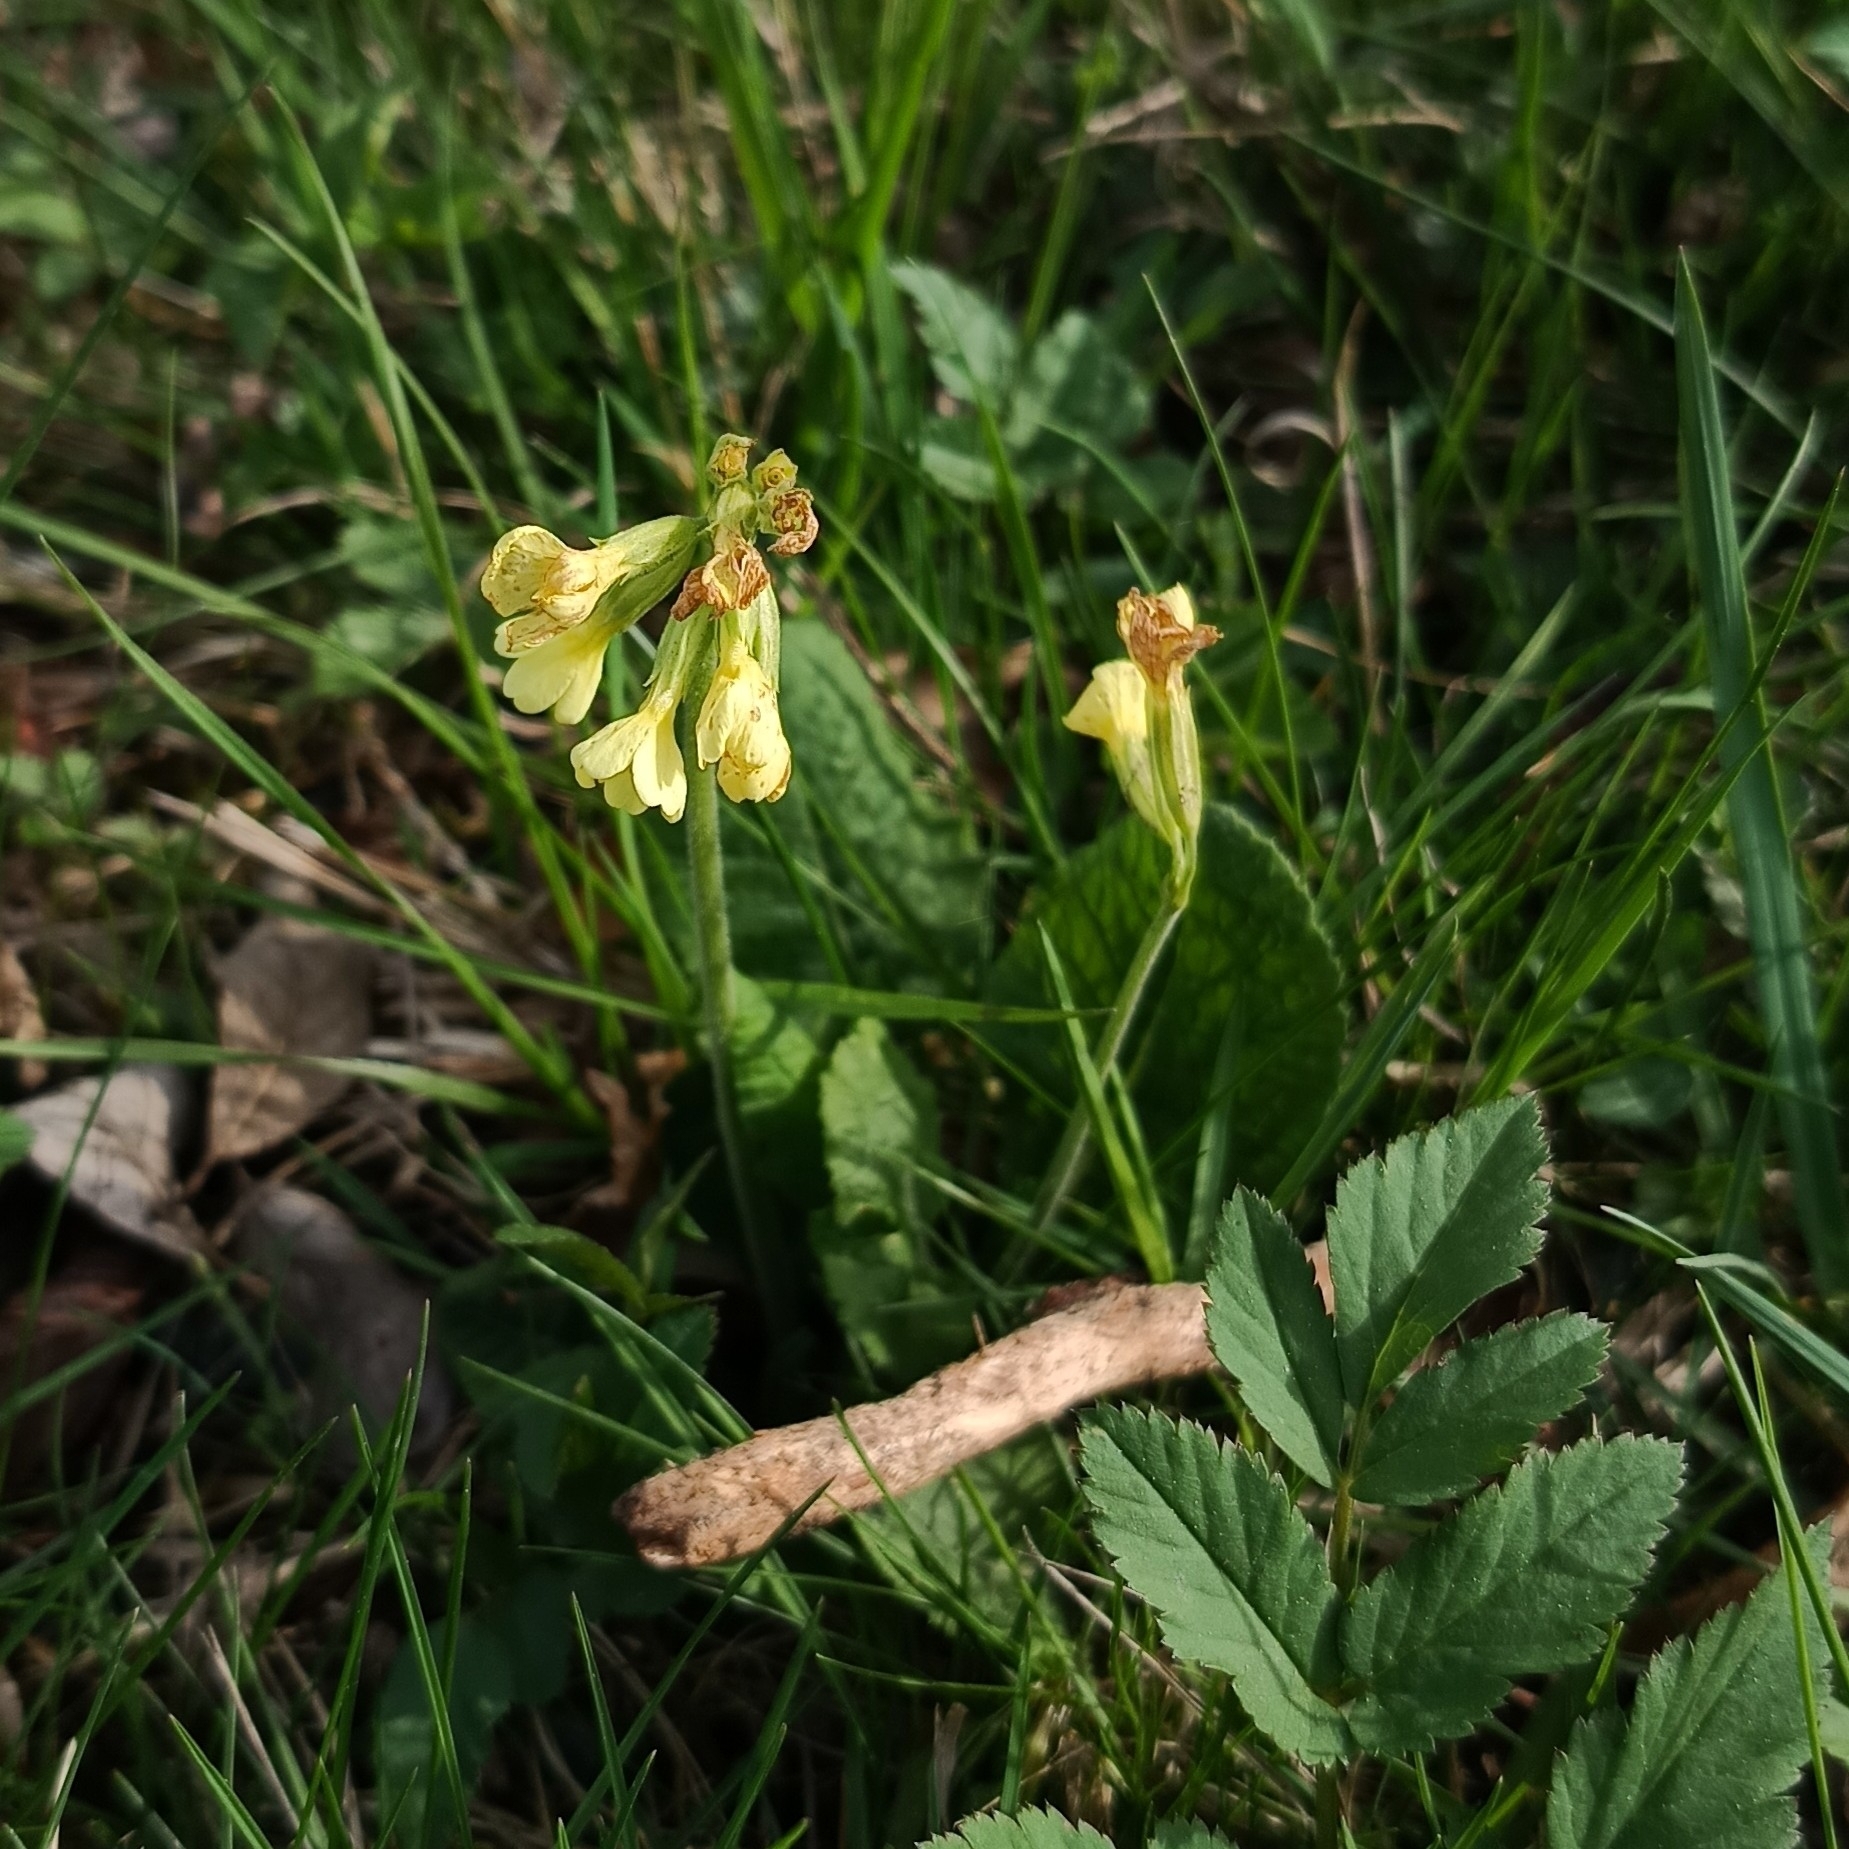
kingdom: Plantae
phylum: Tracheophyta
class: Magnoliopsida
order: Ericales
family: Primulaceae
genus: Primula
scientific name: Primula elatior
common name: Oxlip
